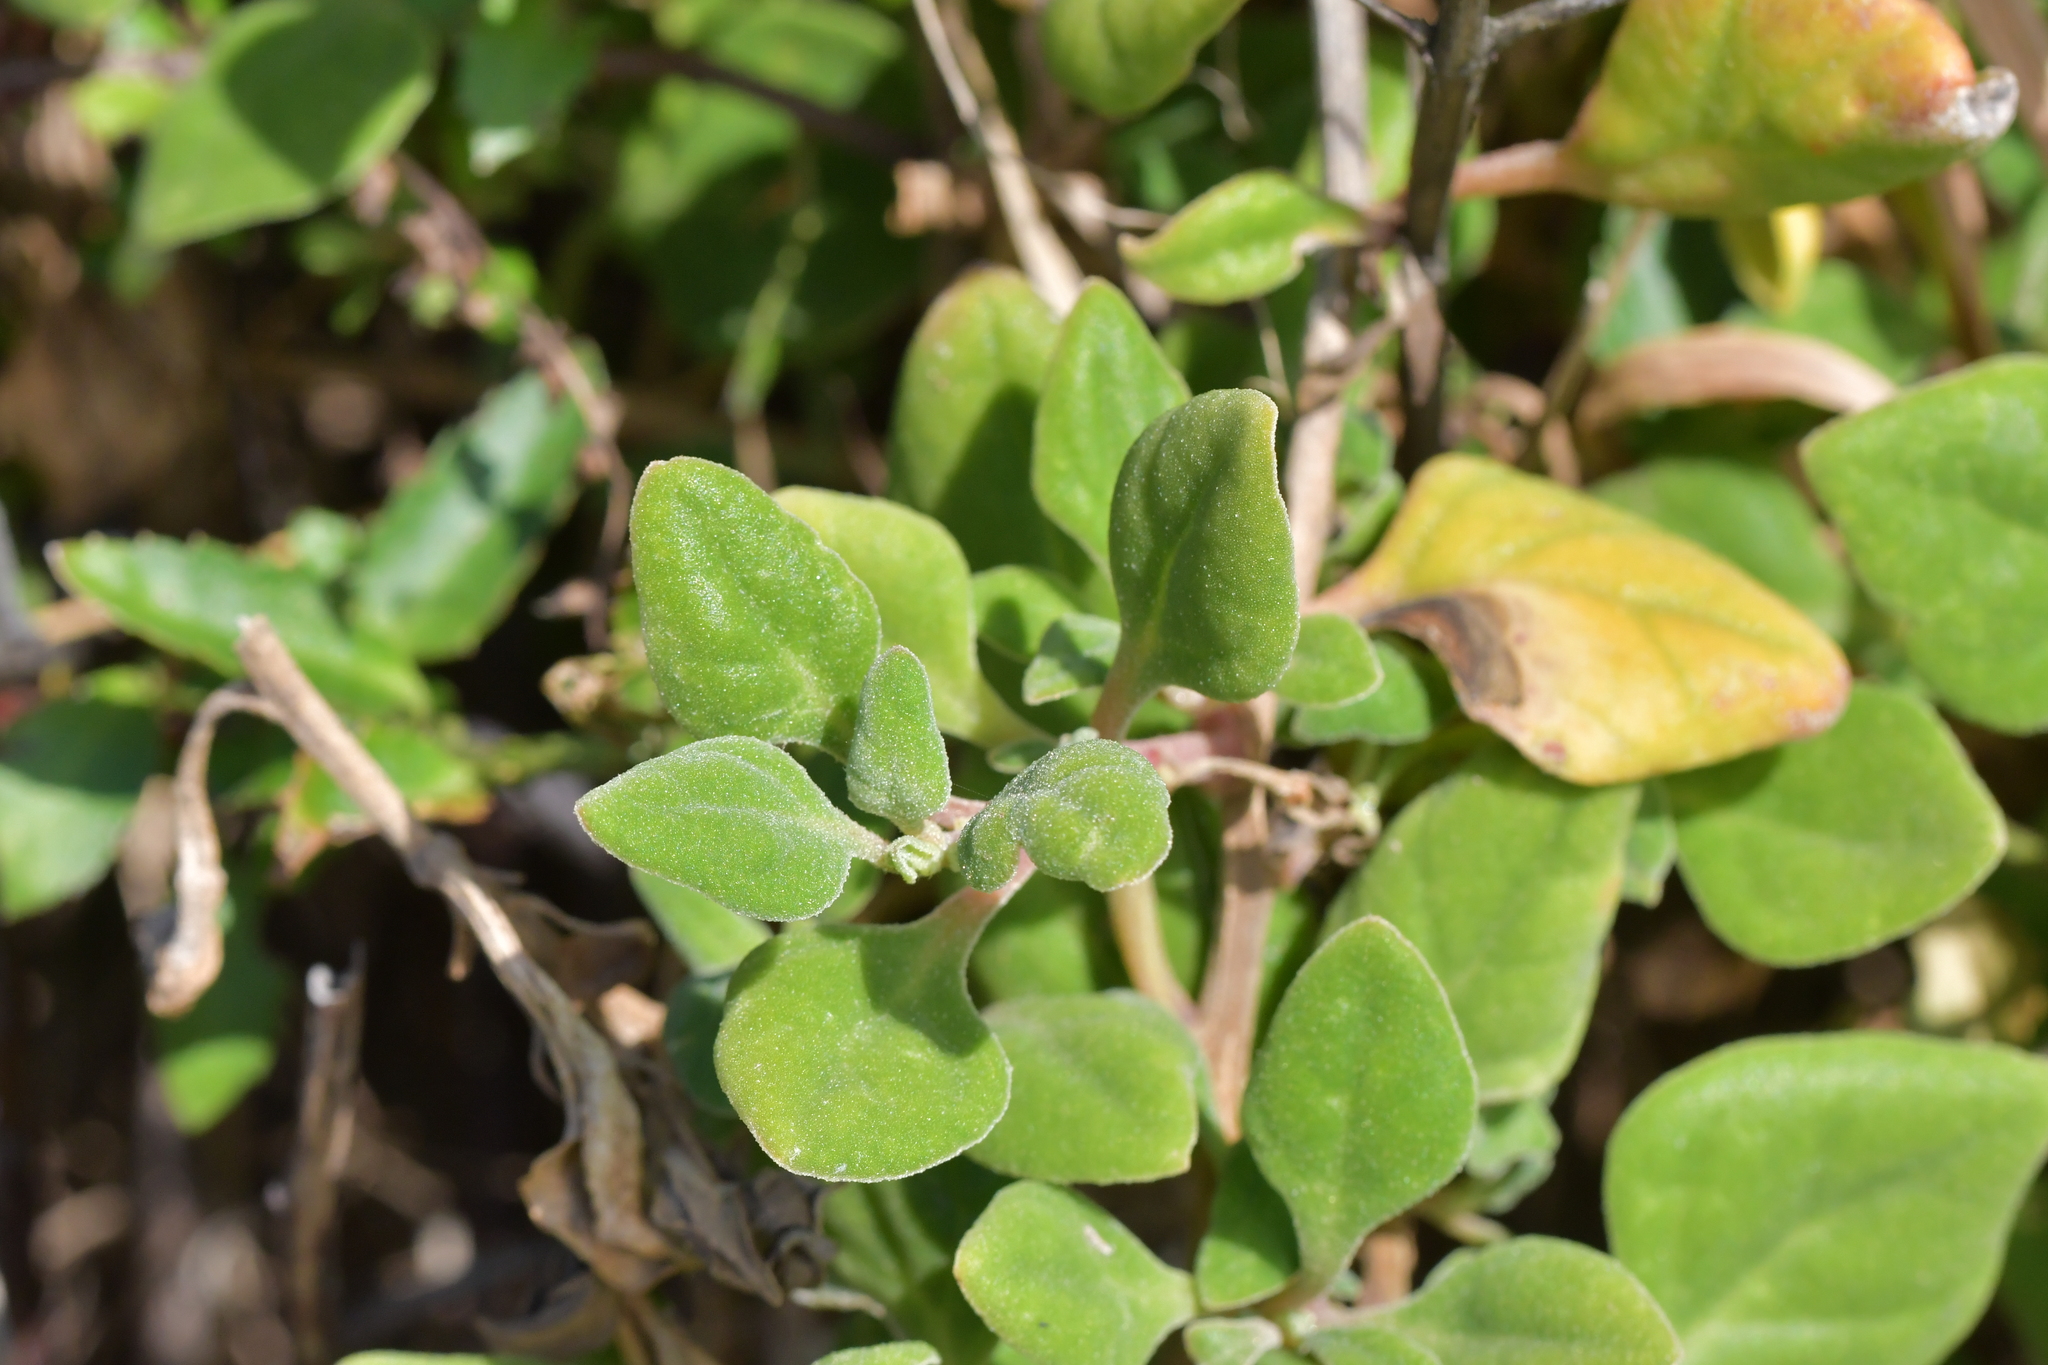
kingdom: Plantae
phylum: Tracheophyta
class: Magnoliopsida
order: Caryophyllales
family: Aizoaceae
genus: Tetragonia
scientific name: Tetragonia implexicoma
